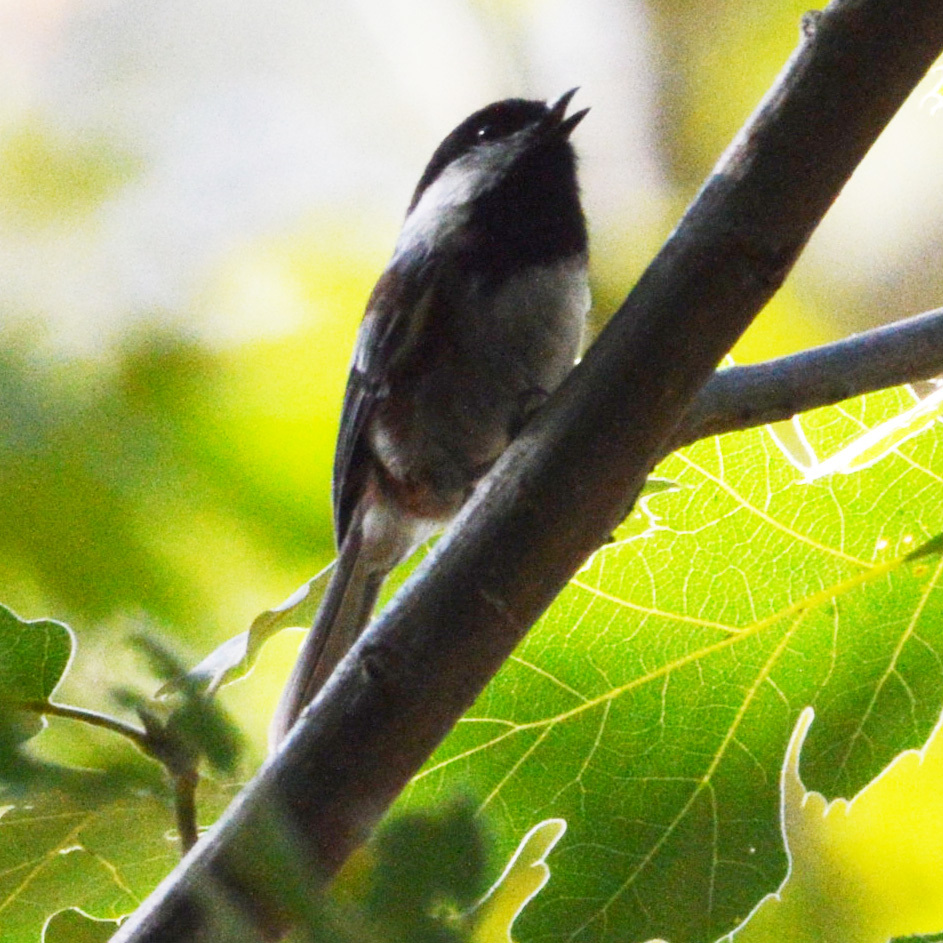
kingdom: Animalia
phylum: Chordata
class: Aves
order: Passeriformes
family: Paridae
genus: Poecile
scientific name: Poecile rufescens
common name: Chestnut-backed chickadee
